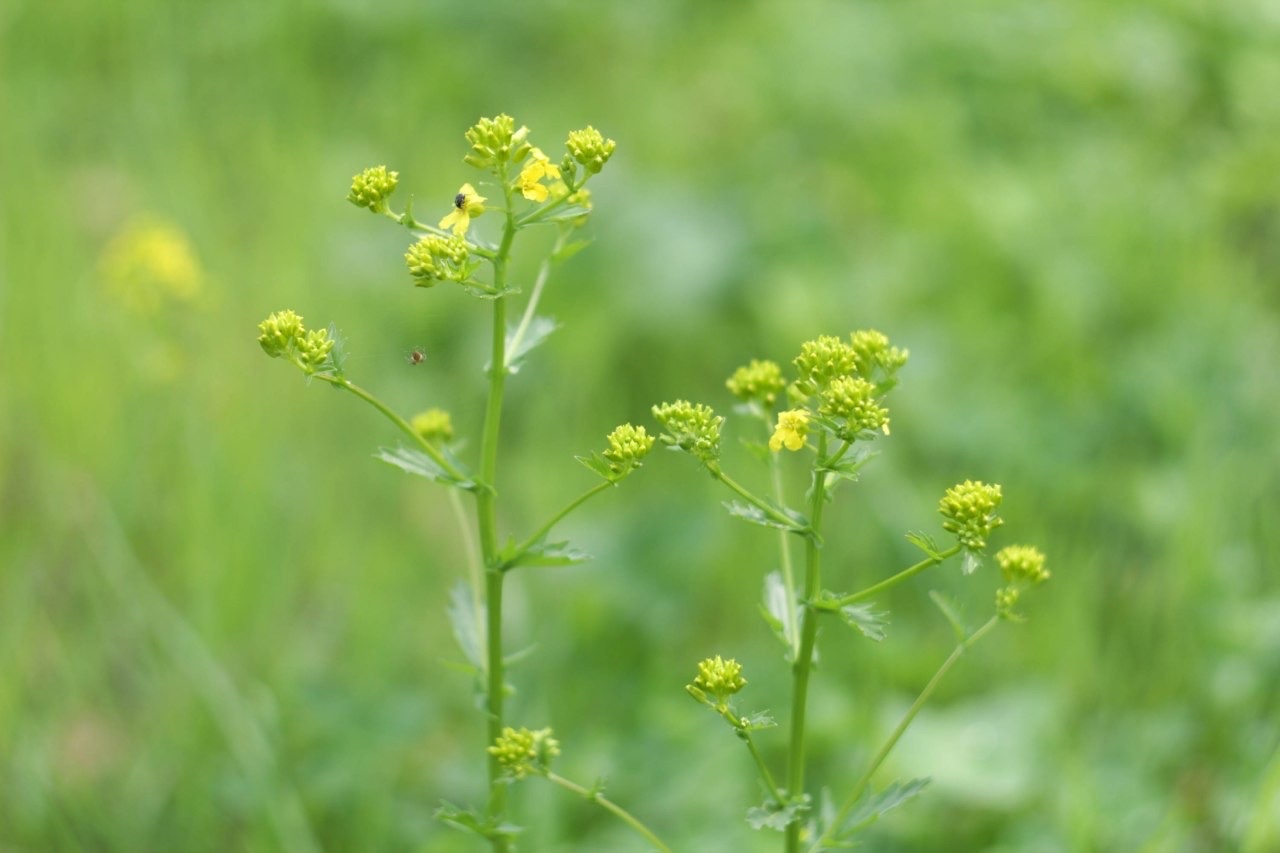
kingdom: Plantae
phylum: Tracheophyta
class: Magnoliopsida
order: Brassicales
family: Brassicaceae
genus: Barbarea
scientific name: Barbarea vulgaris
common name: Cressy-greens
